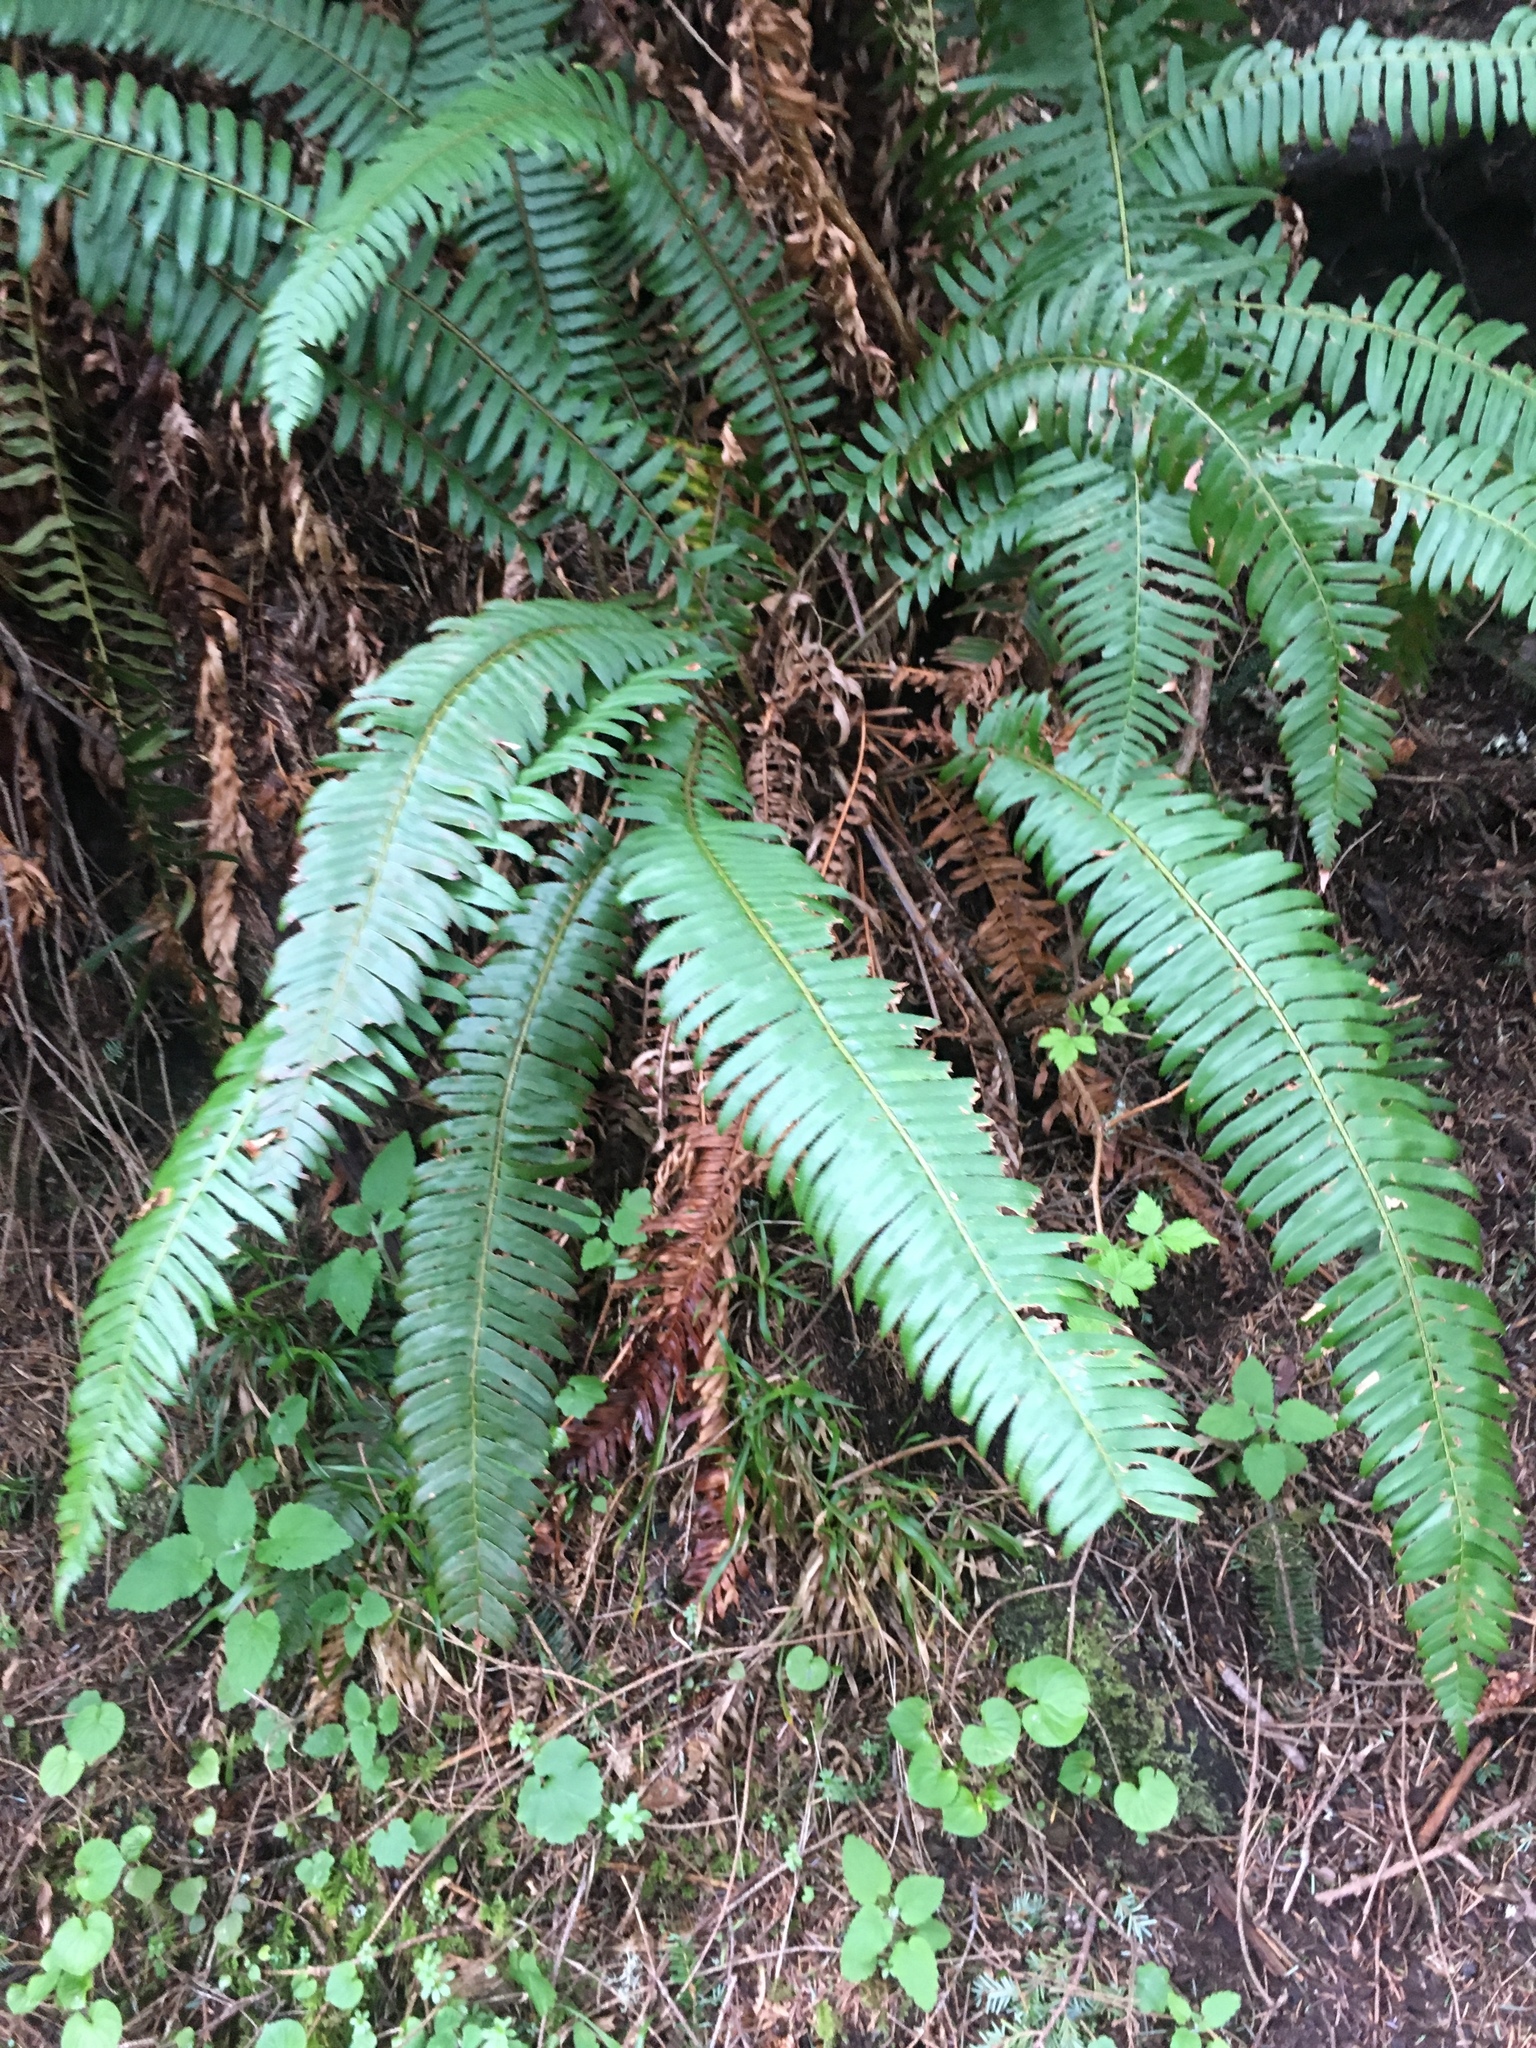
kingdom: Plantae
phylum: Tracheophyta
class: Polypodiopsida
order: Polypodiales
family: Dryopteridaceae
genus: Polystichum
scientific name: Polystichum munitum
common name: Western sword-fern
